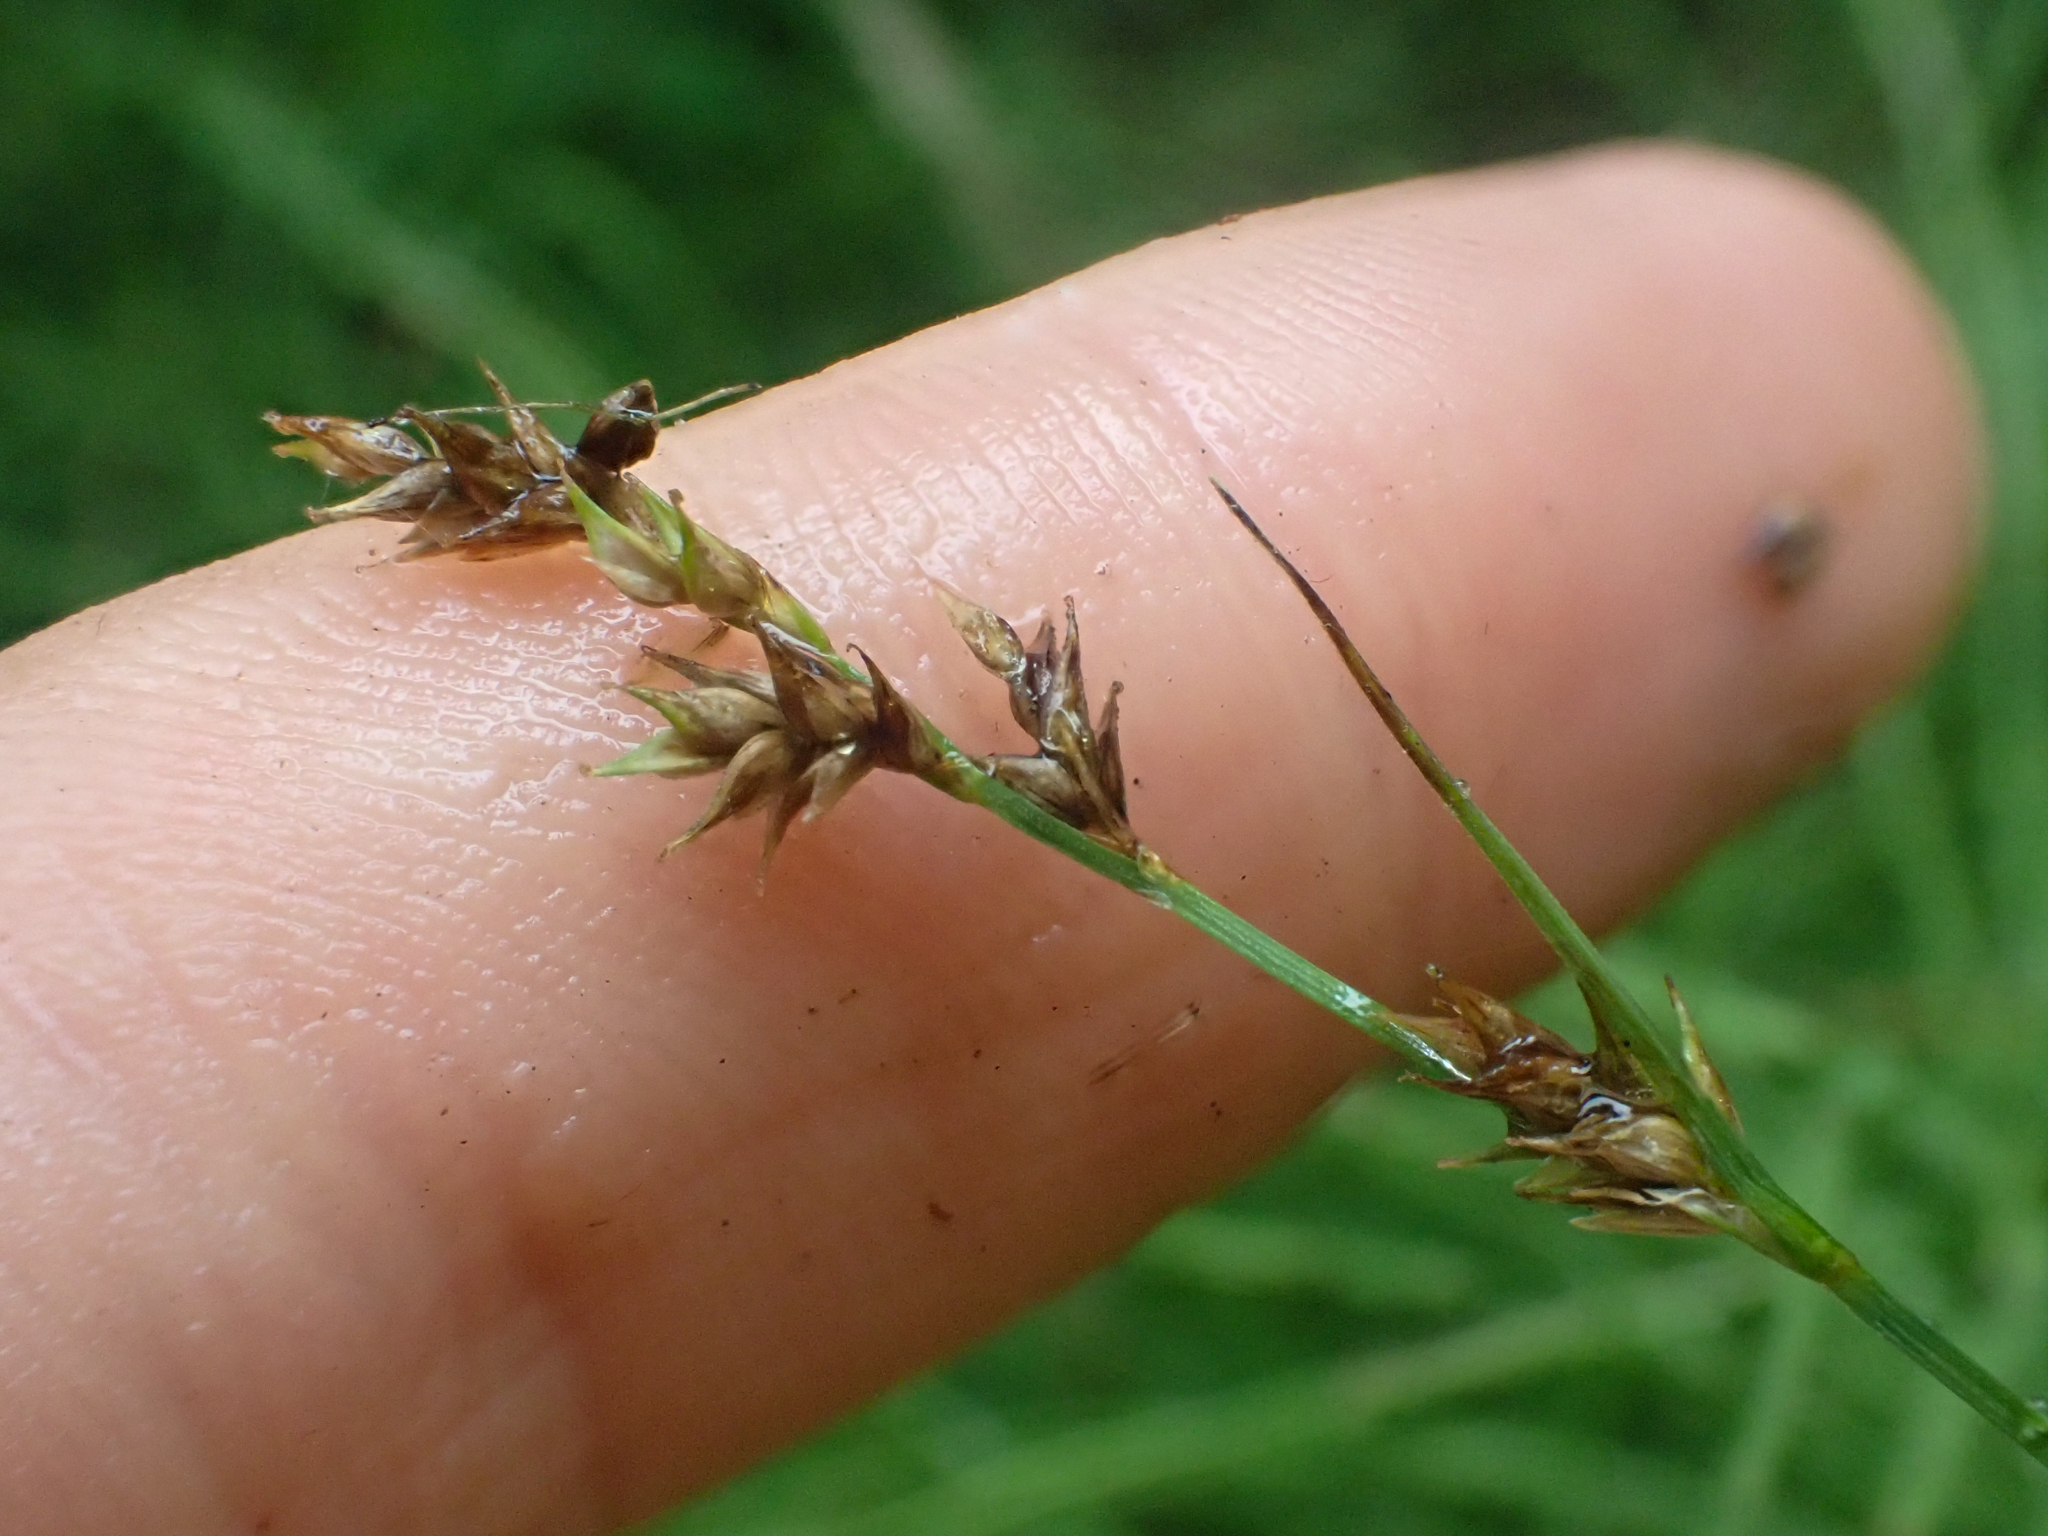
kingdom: Plantae
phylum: Tracheophyta
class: Liliopsida
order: Poales
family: Cyperaceae
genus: Carex
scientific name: Carex laeviculmis
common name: Smooth sedge
